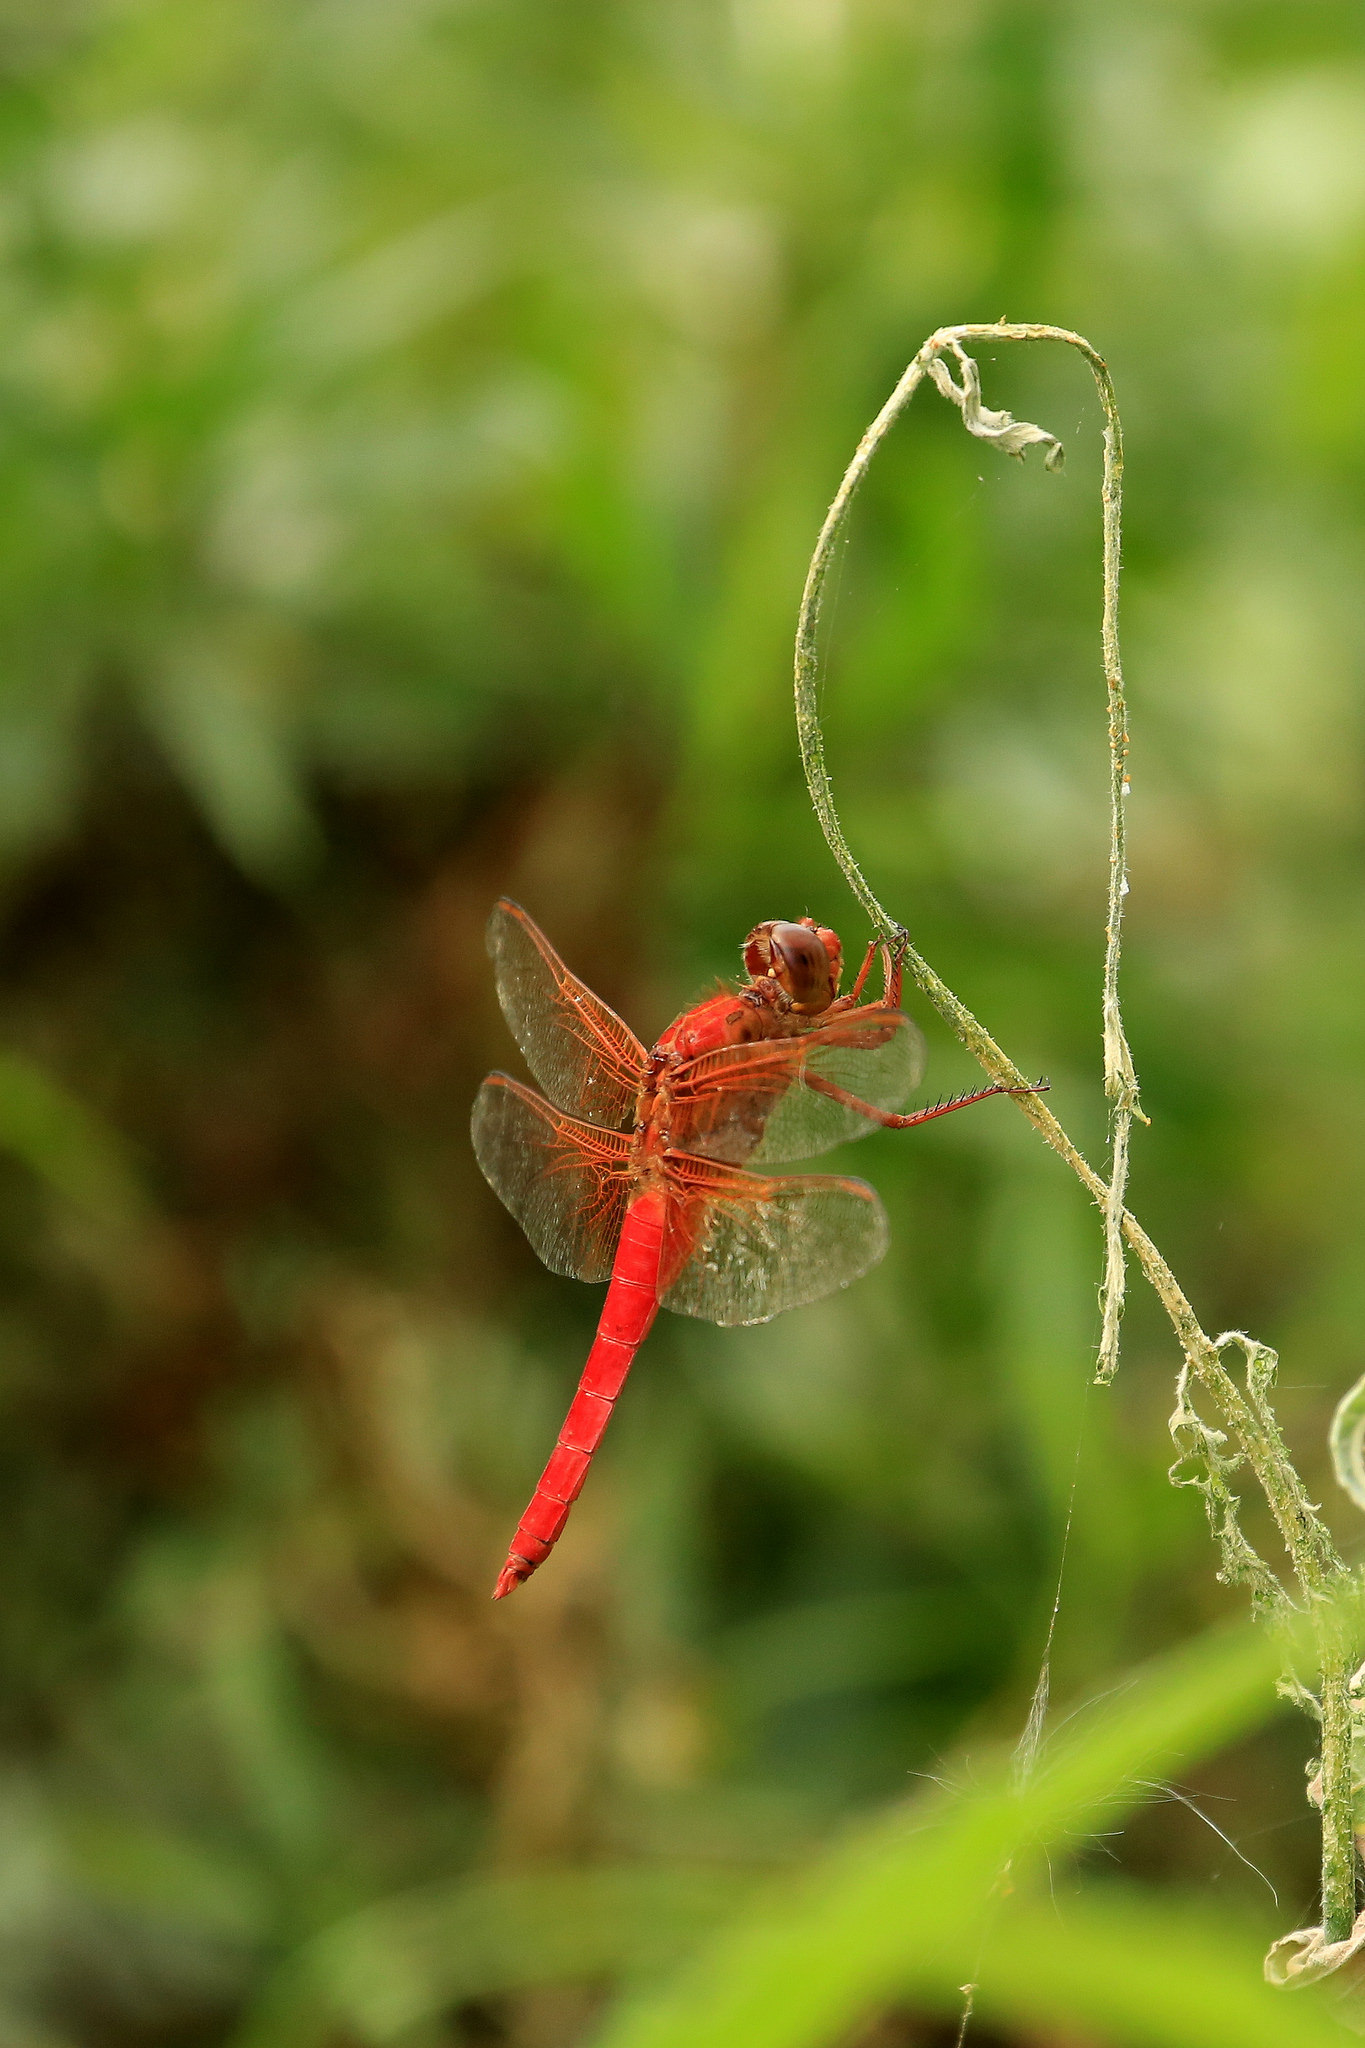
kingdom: Animalia
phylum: Arthropoda
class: Insecta
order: Odonata
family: Libellulidae
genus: Libellula
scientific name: Libellula croceipennis
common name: Neon skimmer
